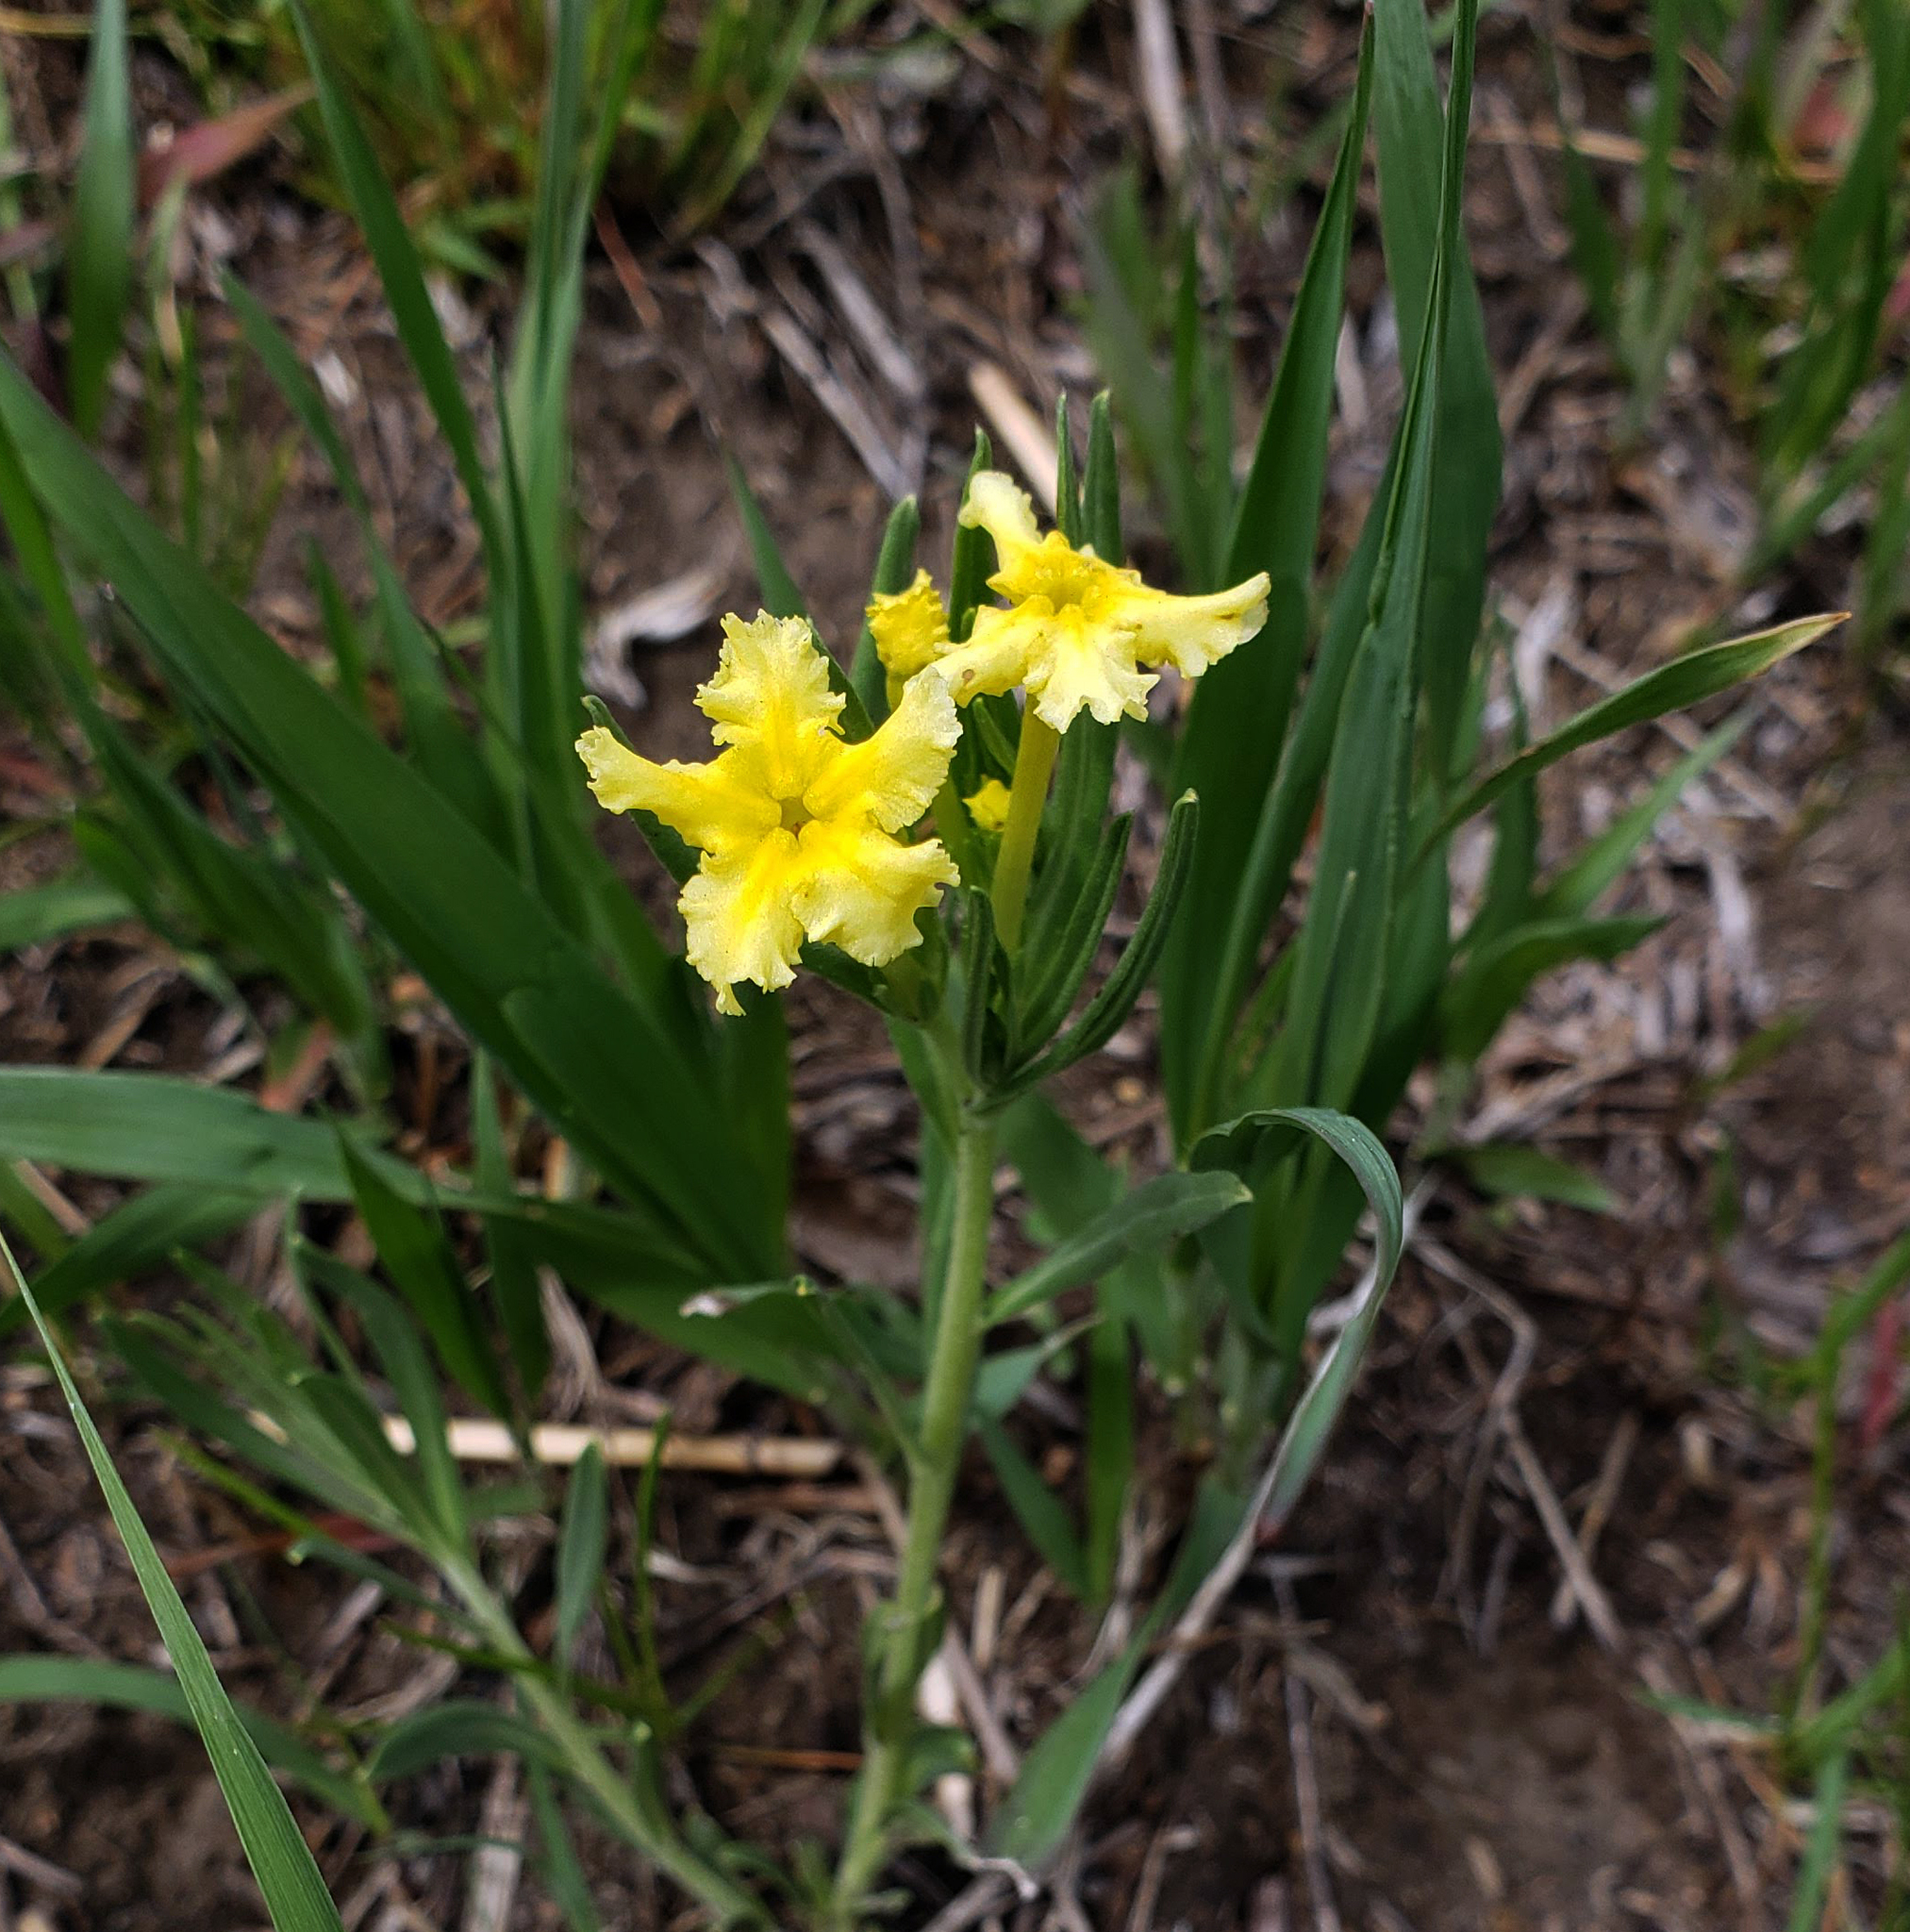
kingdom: Plantae
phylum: Tracheophyta
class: Magnoliopsida
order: Boraginales
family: Boraginaceae
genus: Lithospermum
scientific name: Lithospermum incisum
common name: Fringed gromwell
